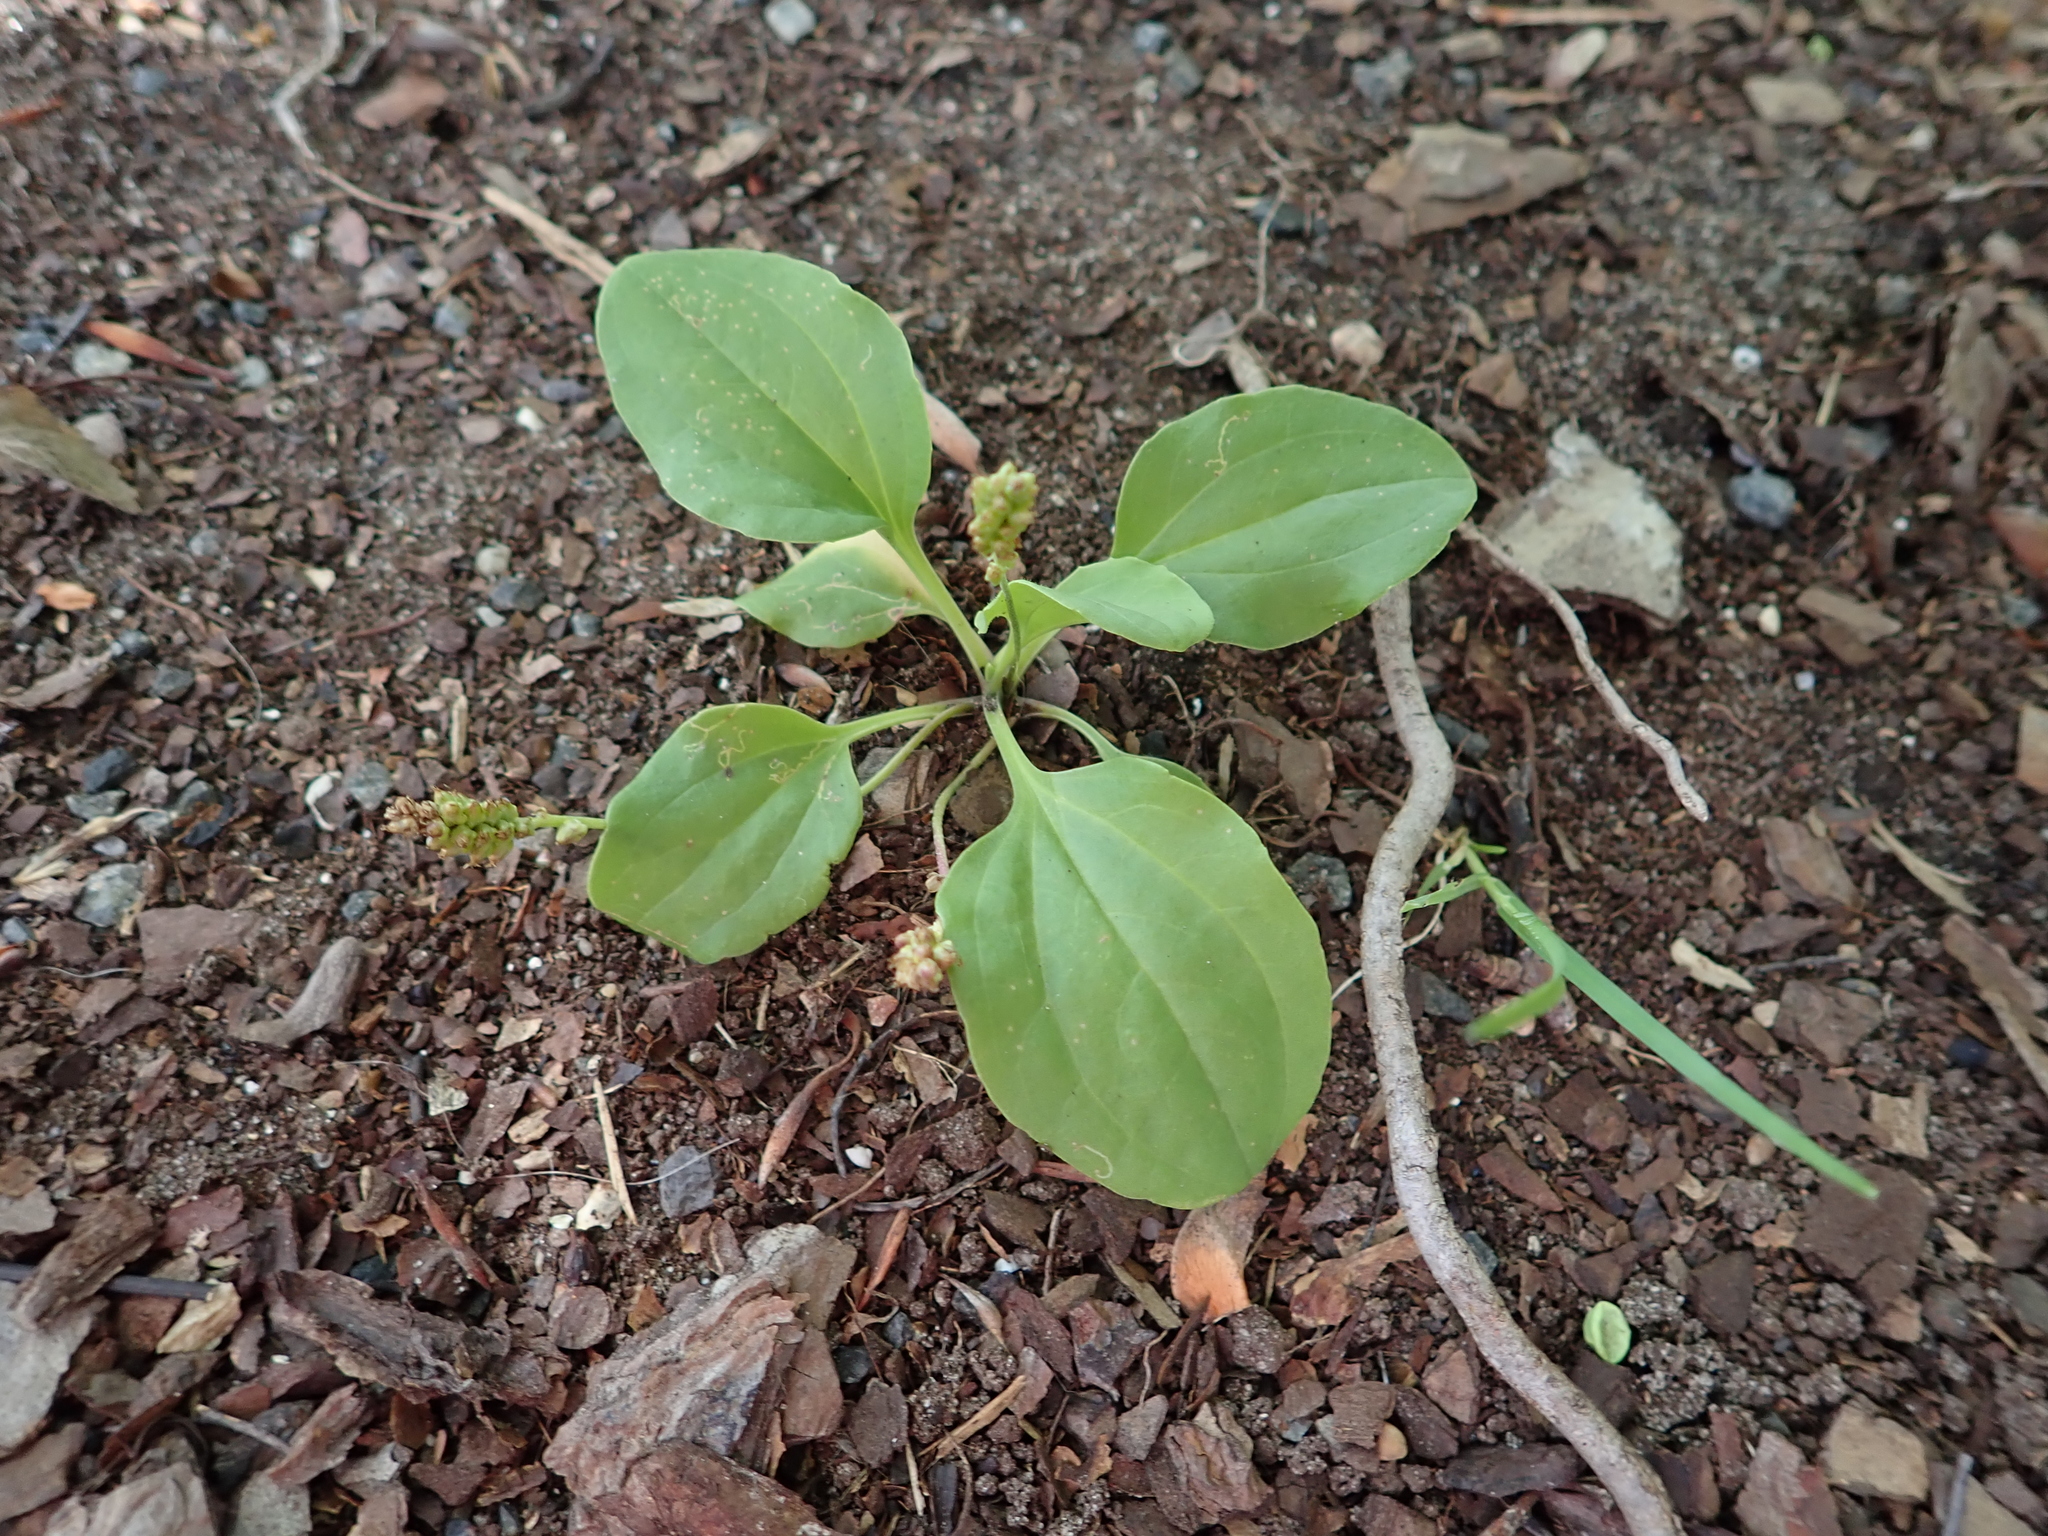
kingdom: Plantae
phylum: Tracheophyta
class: Magnoliopsida
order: Lamiales
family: Plantaginaceae
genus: Plantago
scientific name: Plantago major
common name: Common plantain
